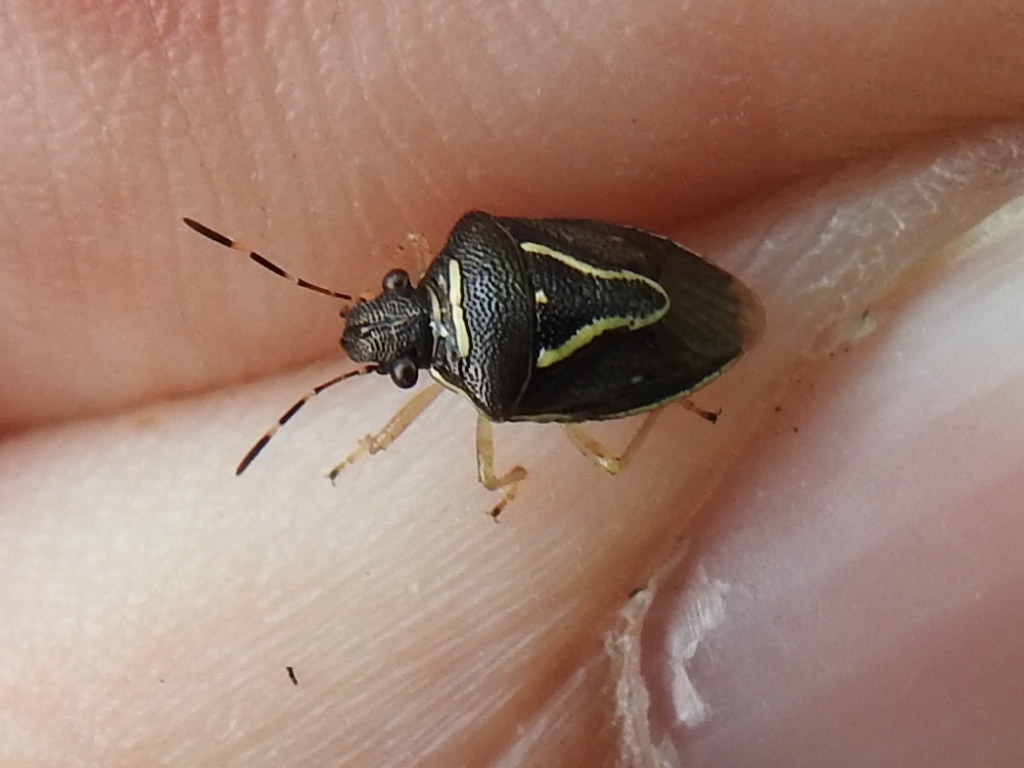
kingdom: Animalia
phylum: Arthropoda
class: Insecta
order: Hemiptera
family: Pentatomidae
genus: Mormidea
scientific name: Mormidea lugens
